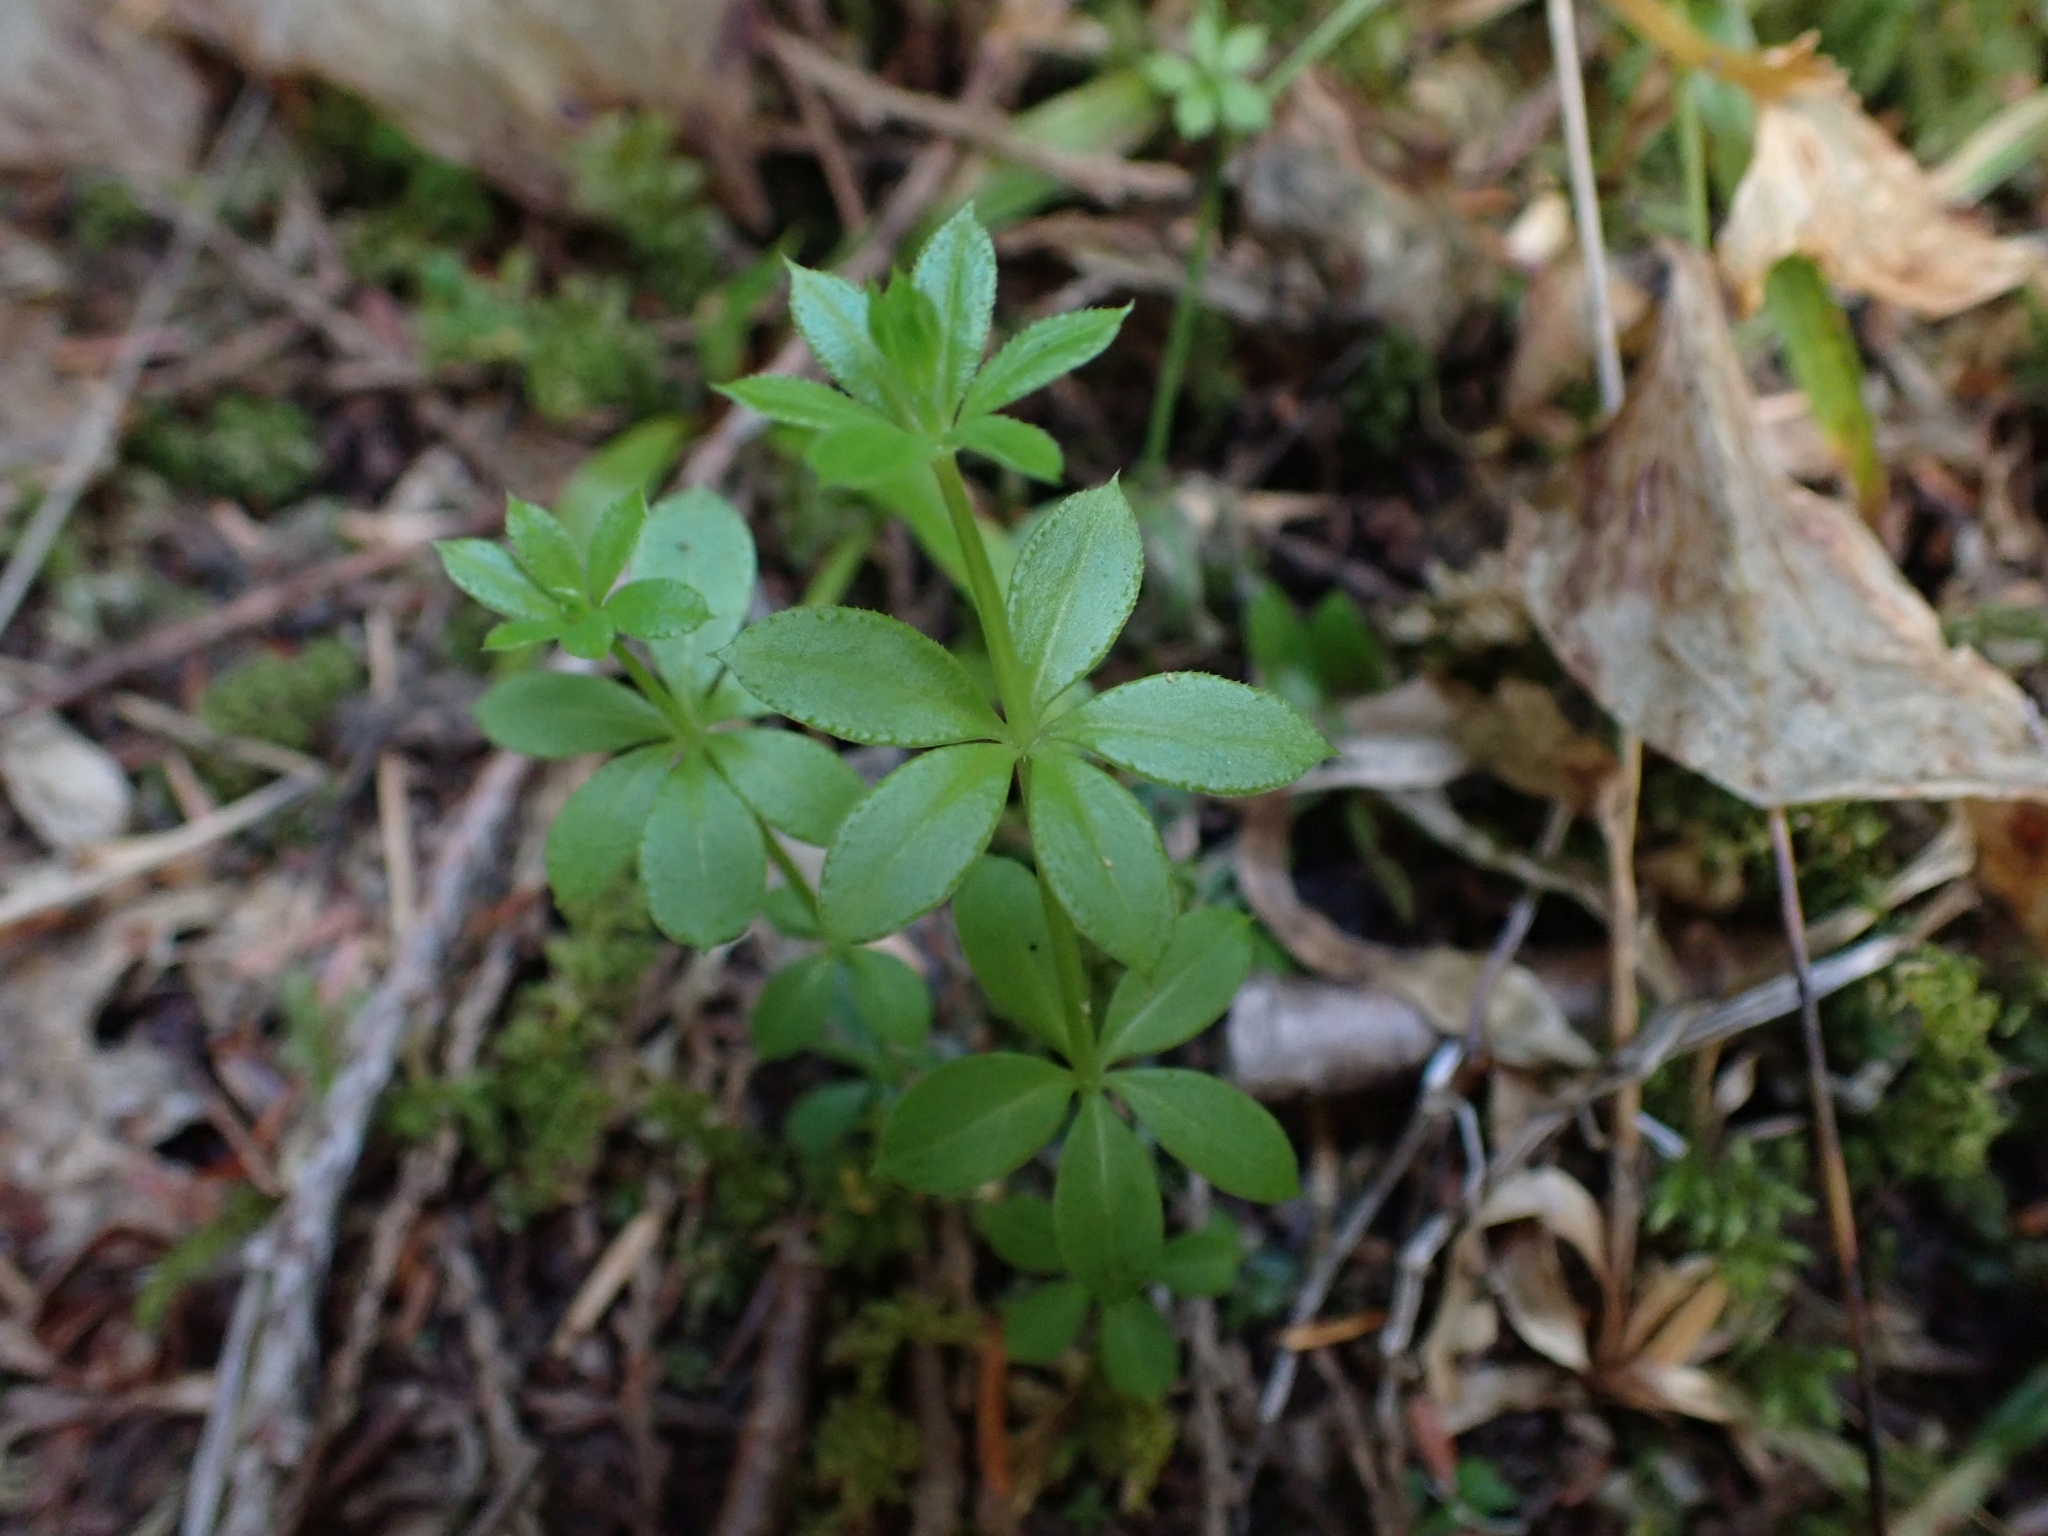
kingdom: Plantae
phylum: Tracheophyta
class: Magnoliopsida
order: Gentianales
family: Rubiaceae
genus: Galium
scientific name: Galium triflorum
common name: Fragrant bedstraw
